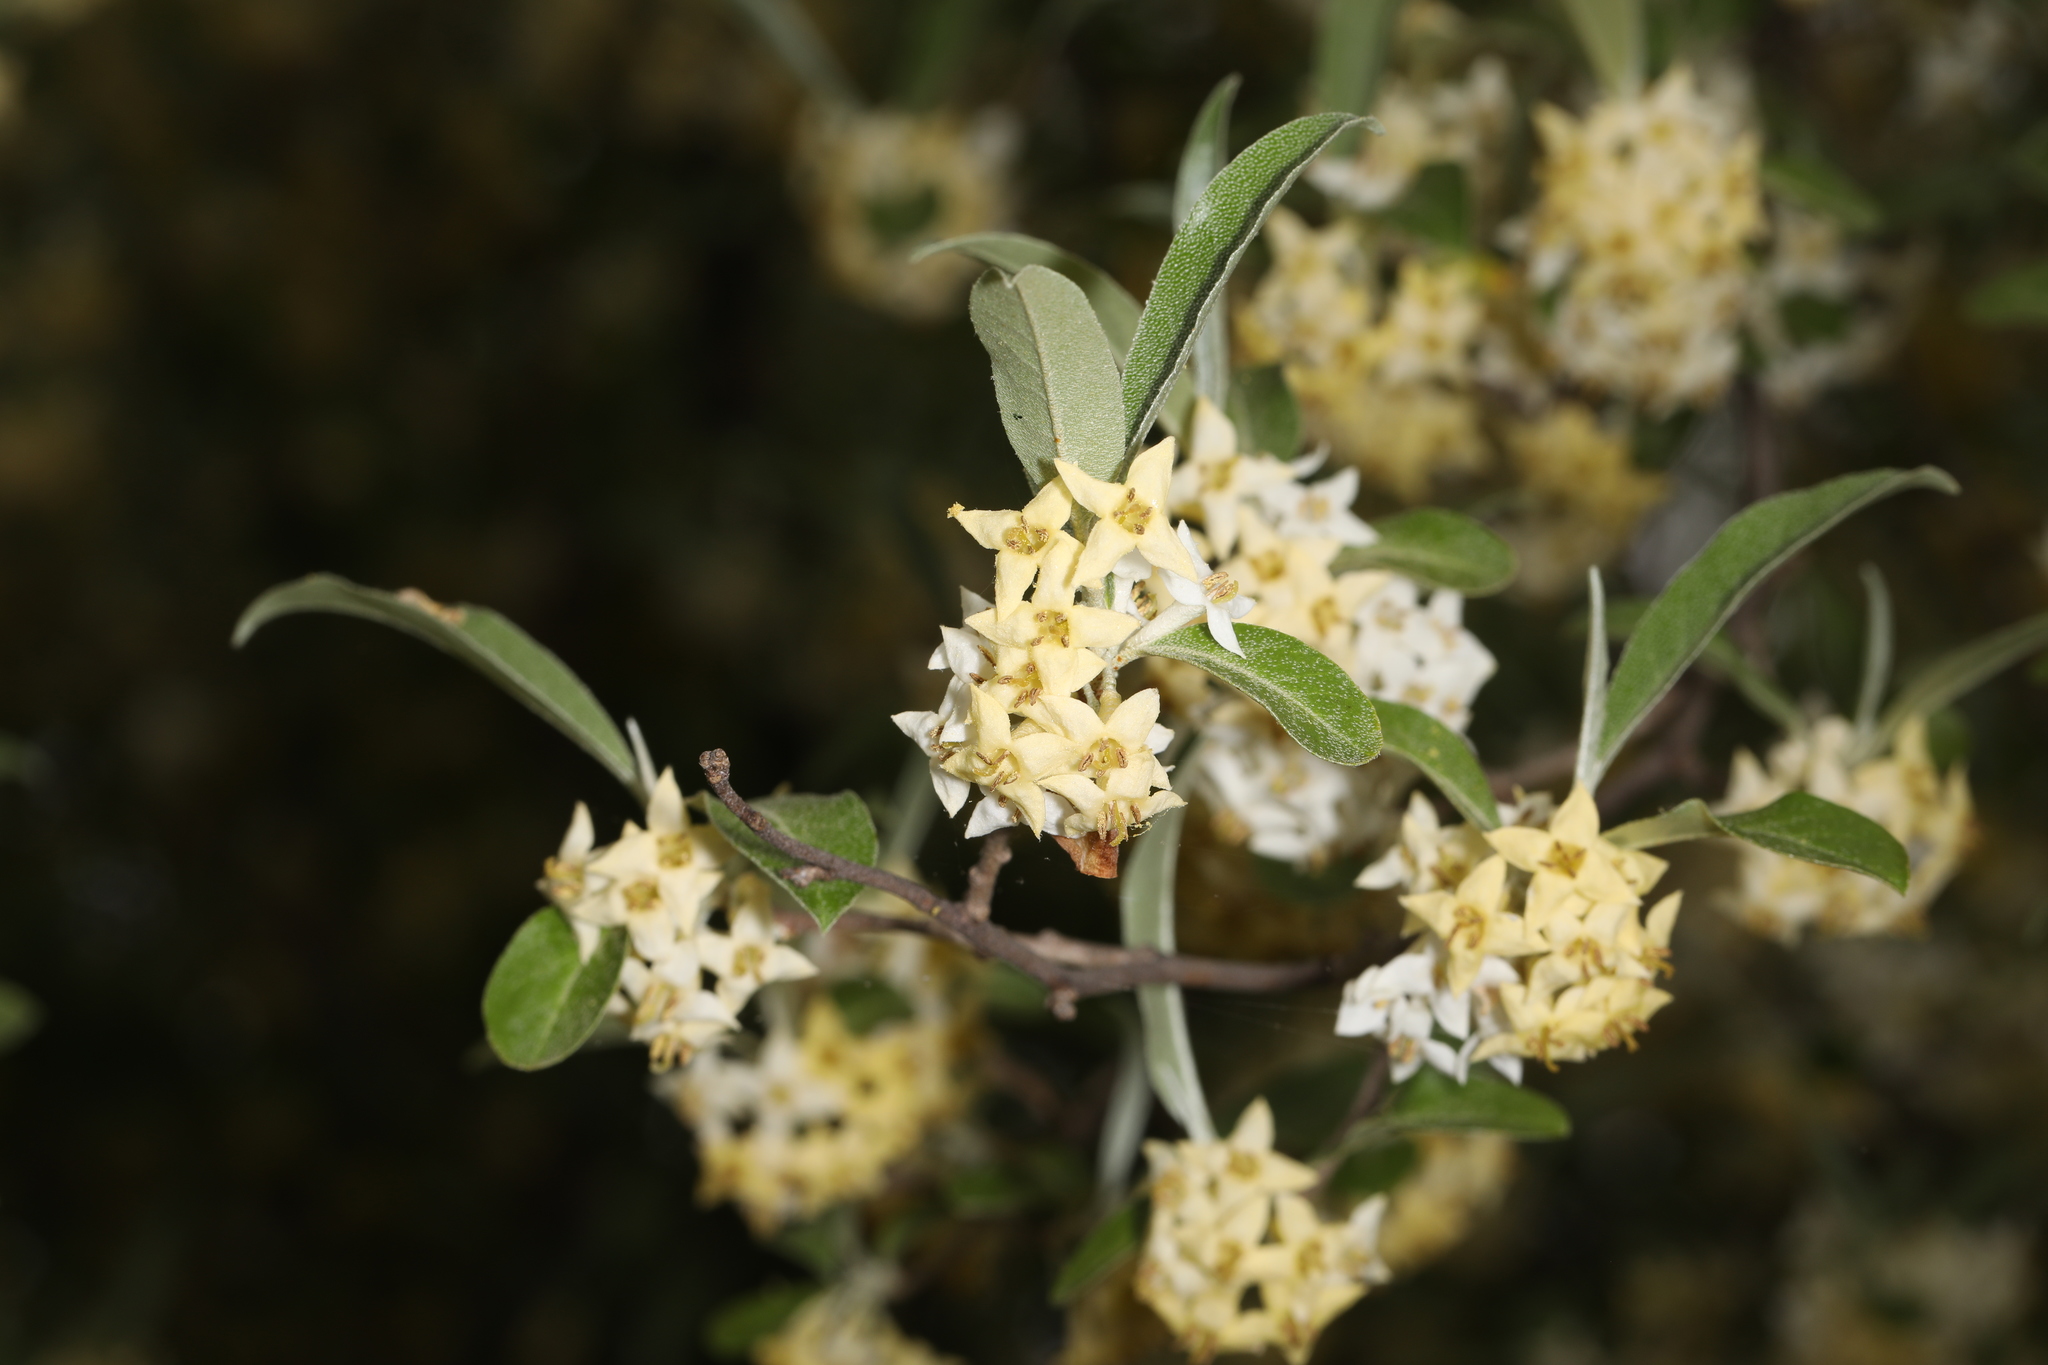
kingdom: Plantae
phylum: Tracheophyta
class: Magnoliopsida
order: Rosales
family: Elaeagnaceae
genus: Elaeagnus
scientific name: Elaeagnus umbellata
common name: Autumn olive
